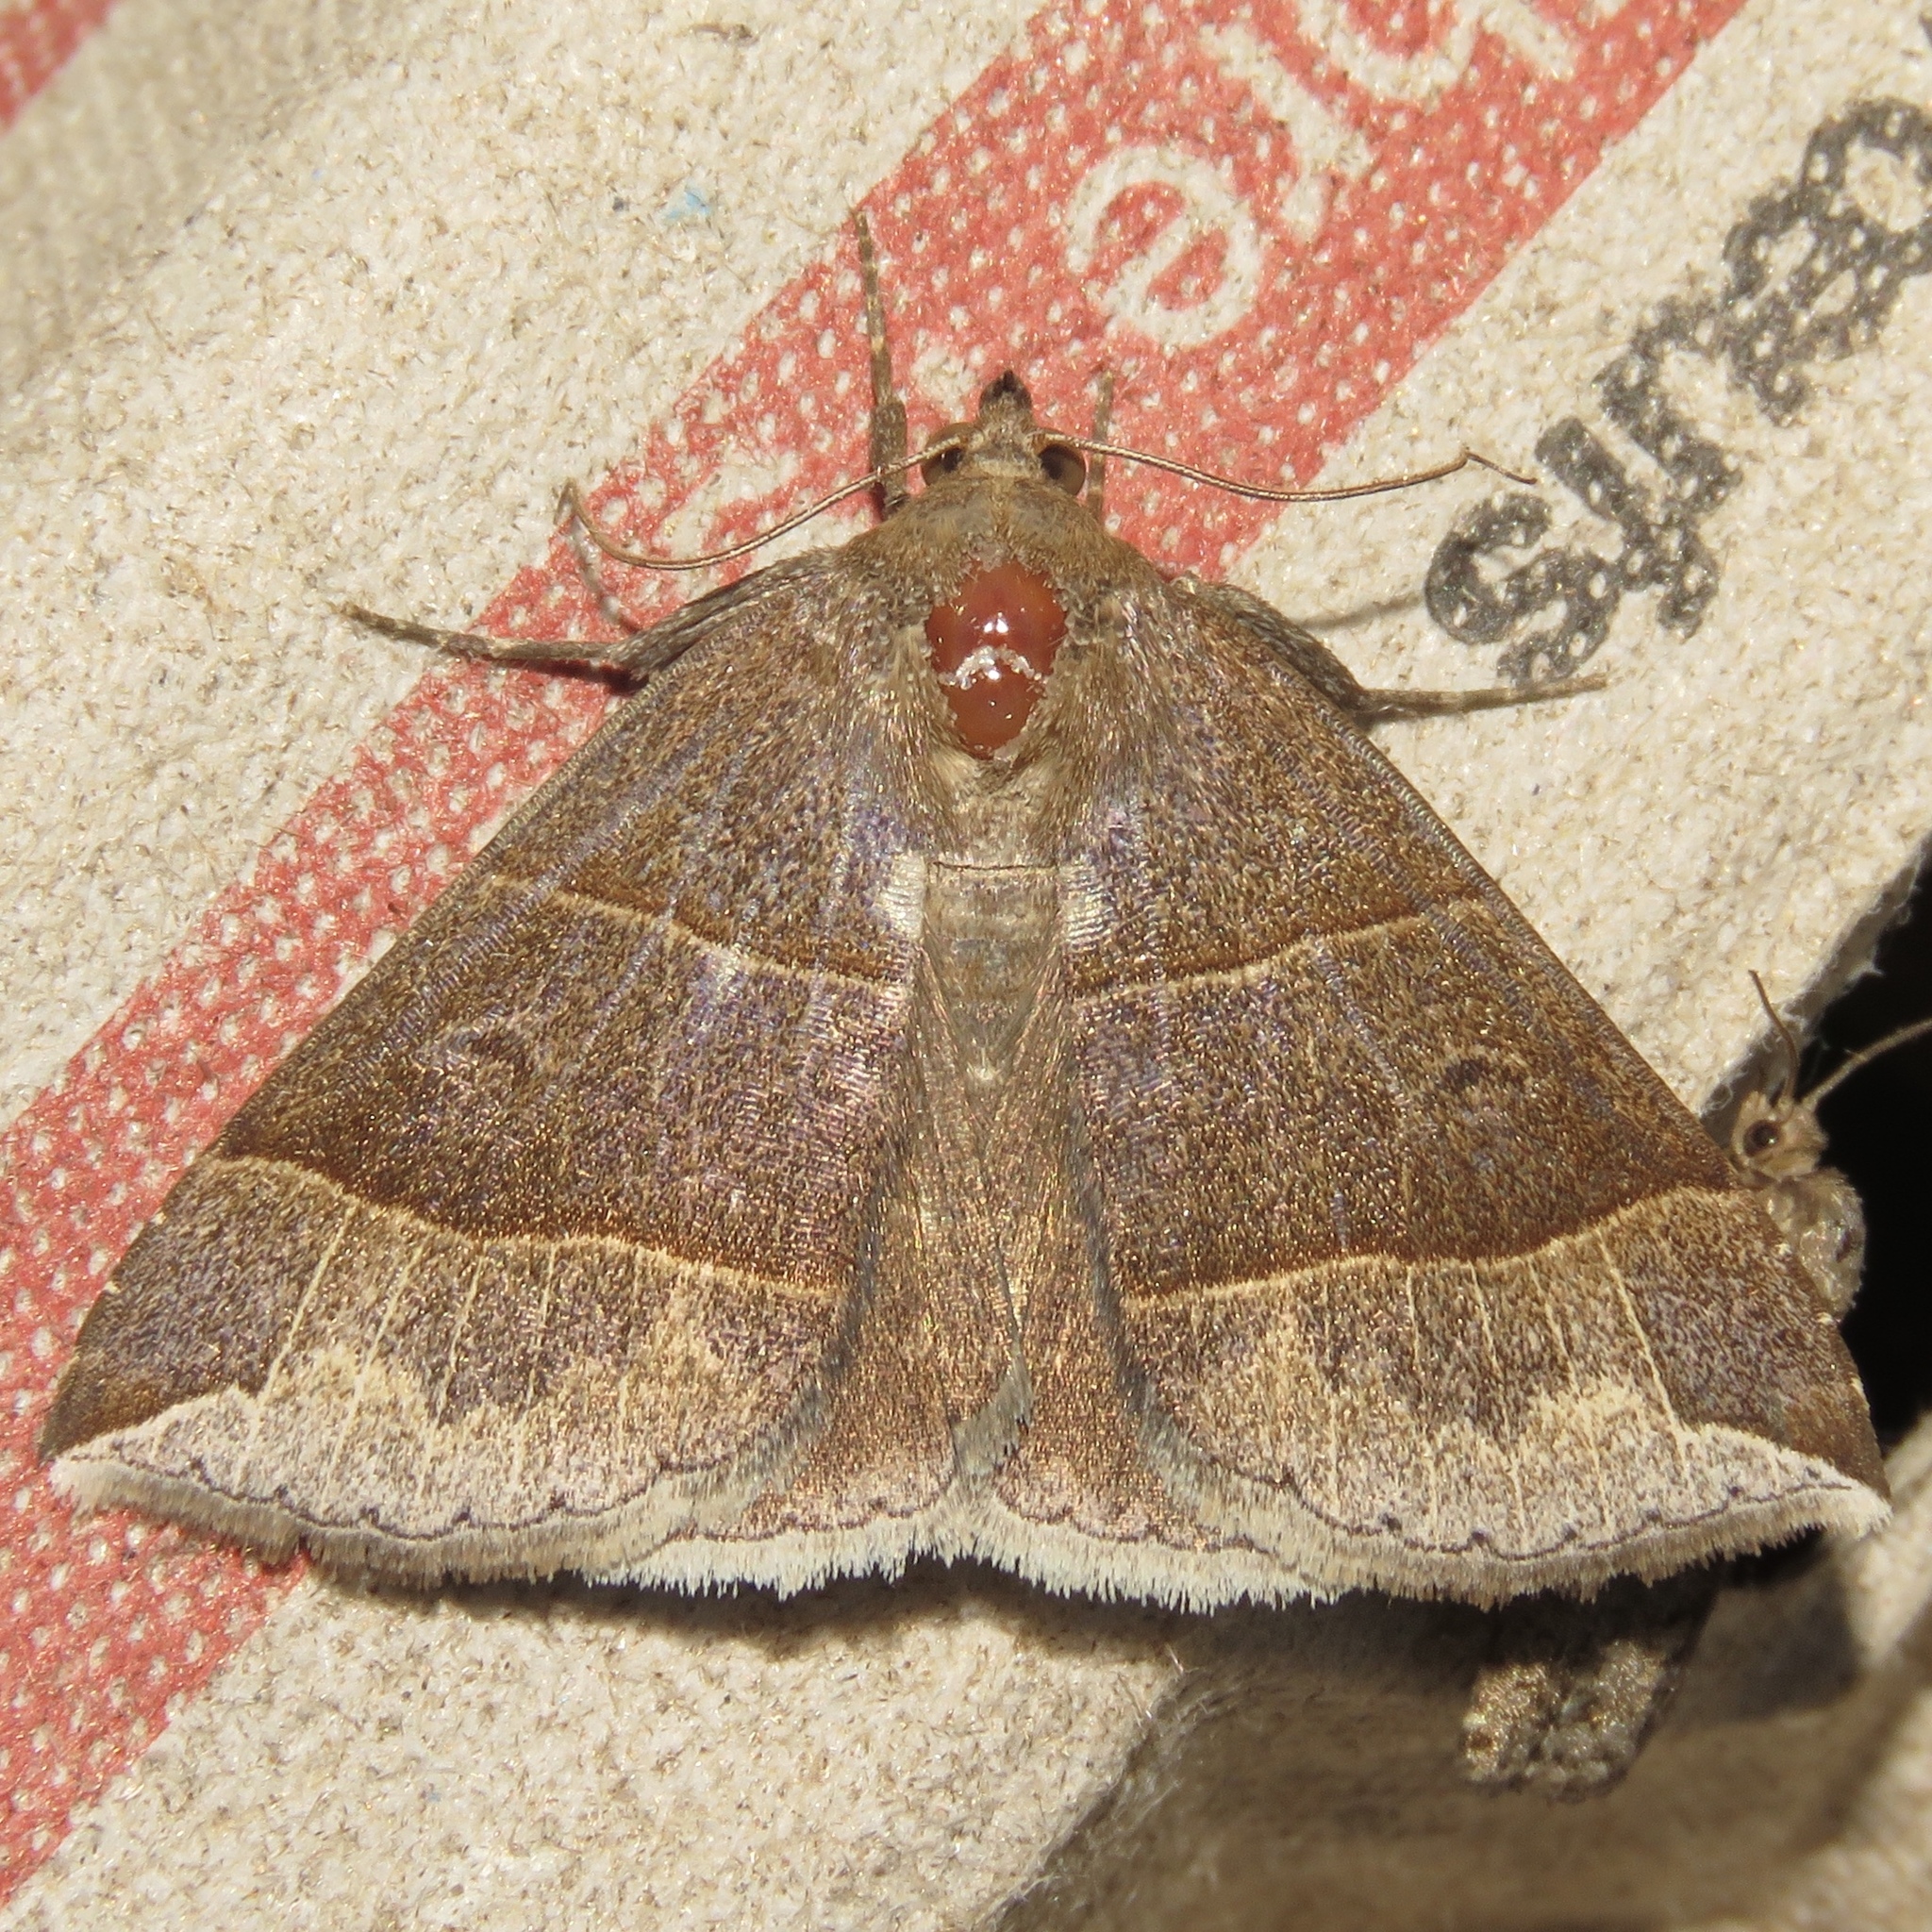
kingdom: Animalia
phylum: Arthropoda
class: Insecta
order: Lepidoptera
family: Erebidae
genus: Parallelia
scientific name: Parallelia bistriaris
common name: Maple looper moth
